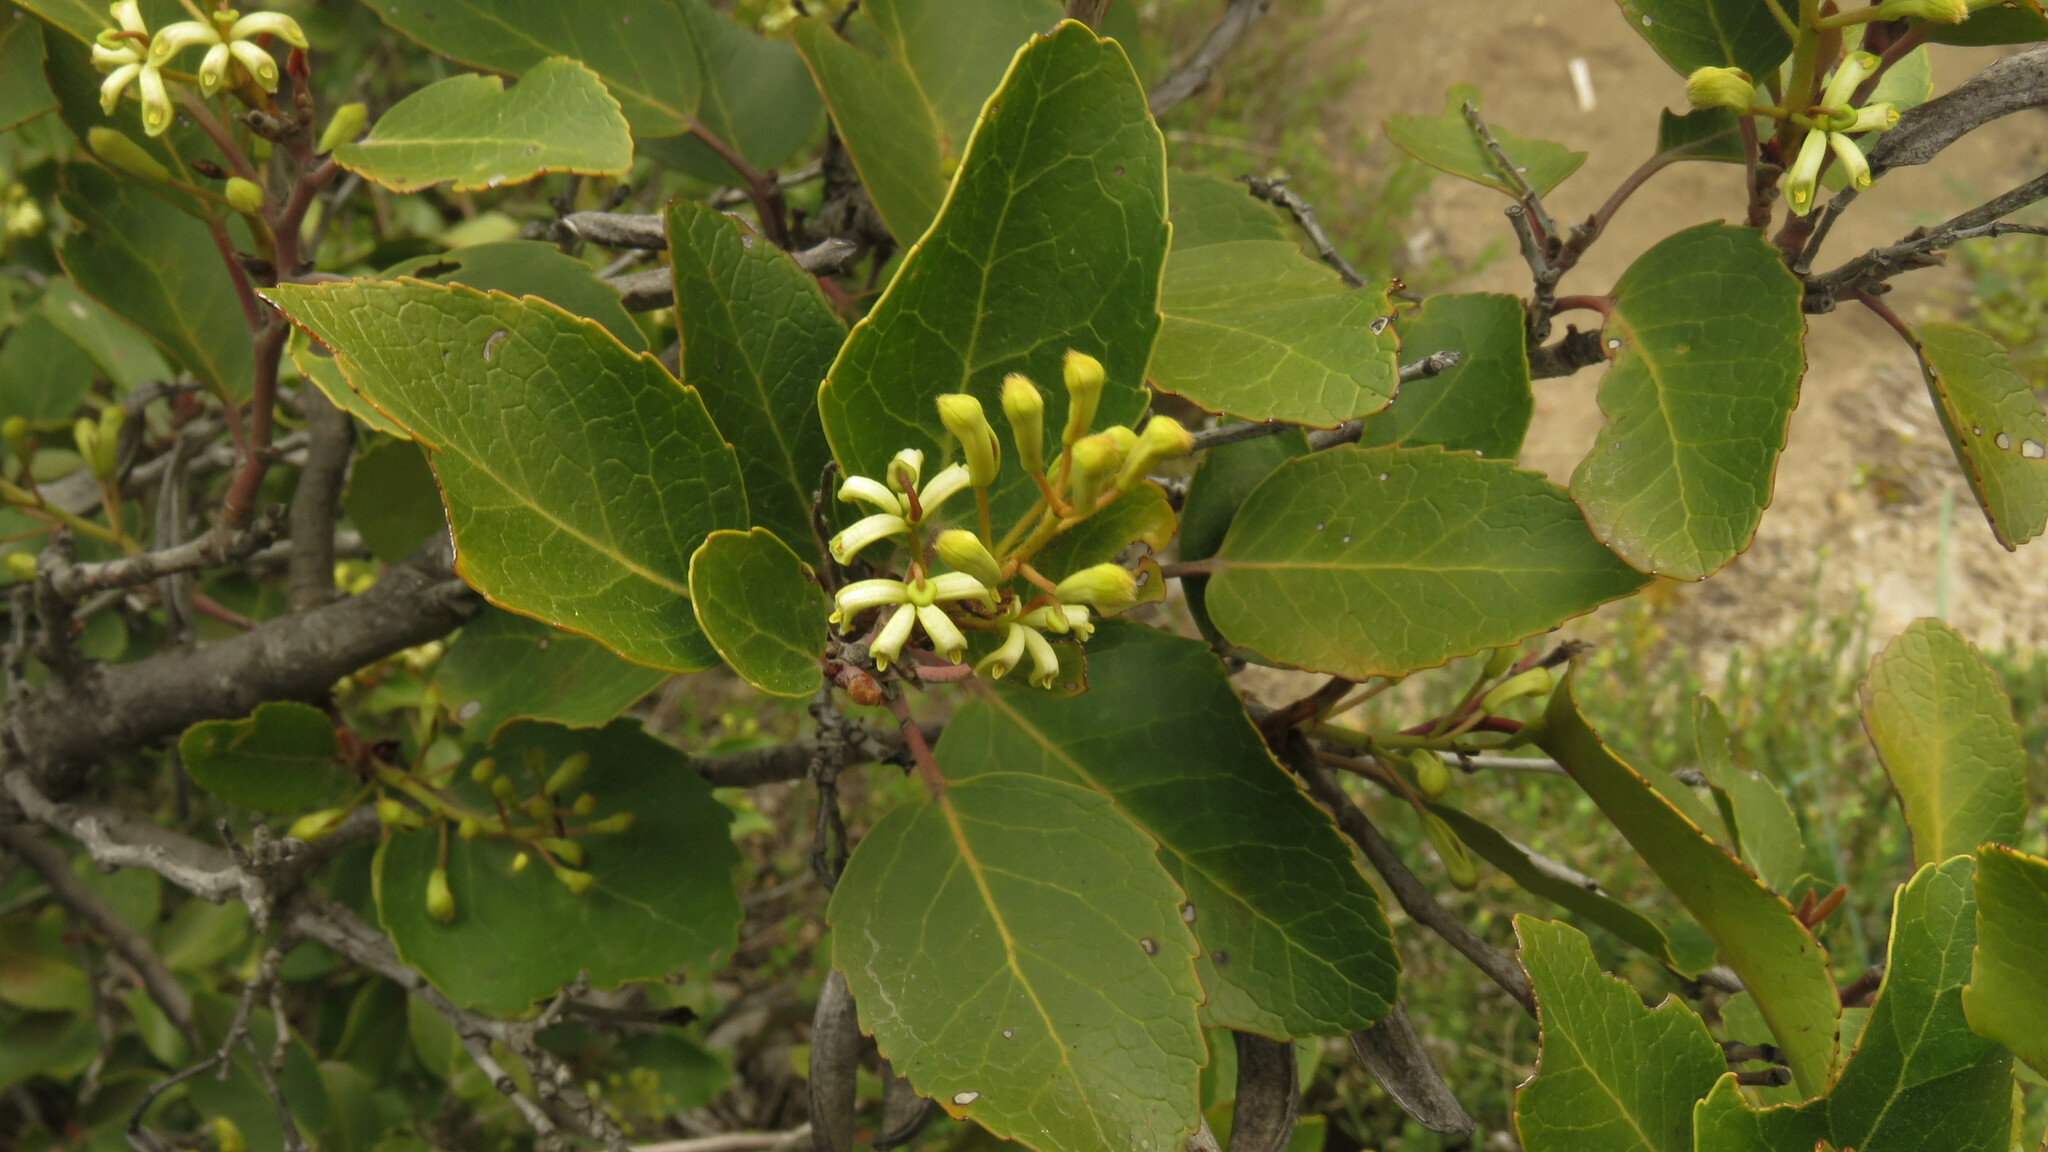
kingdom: Plantae
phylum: Tracheophyta
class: Magnoliopsida
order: Proteales
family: Proteaceae
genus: Lomatia
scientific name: Lomatia hirsuta
